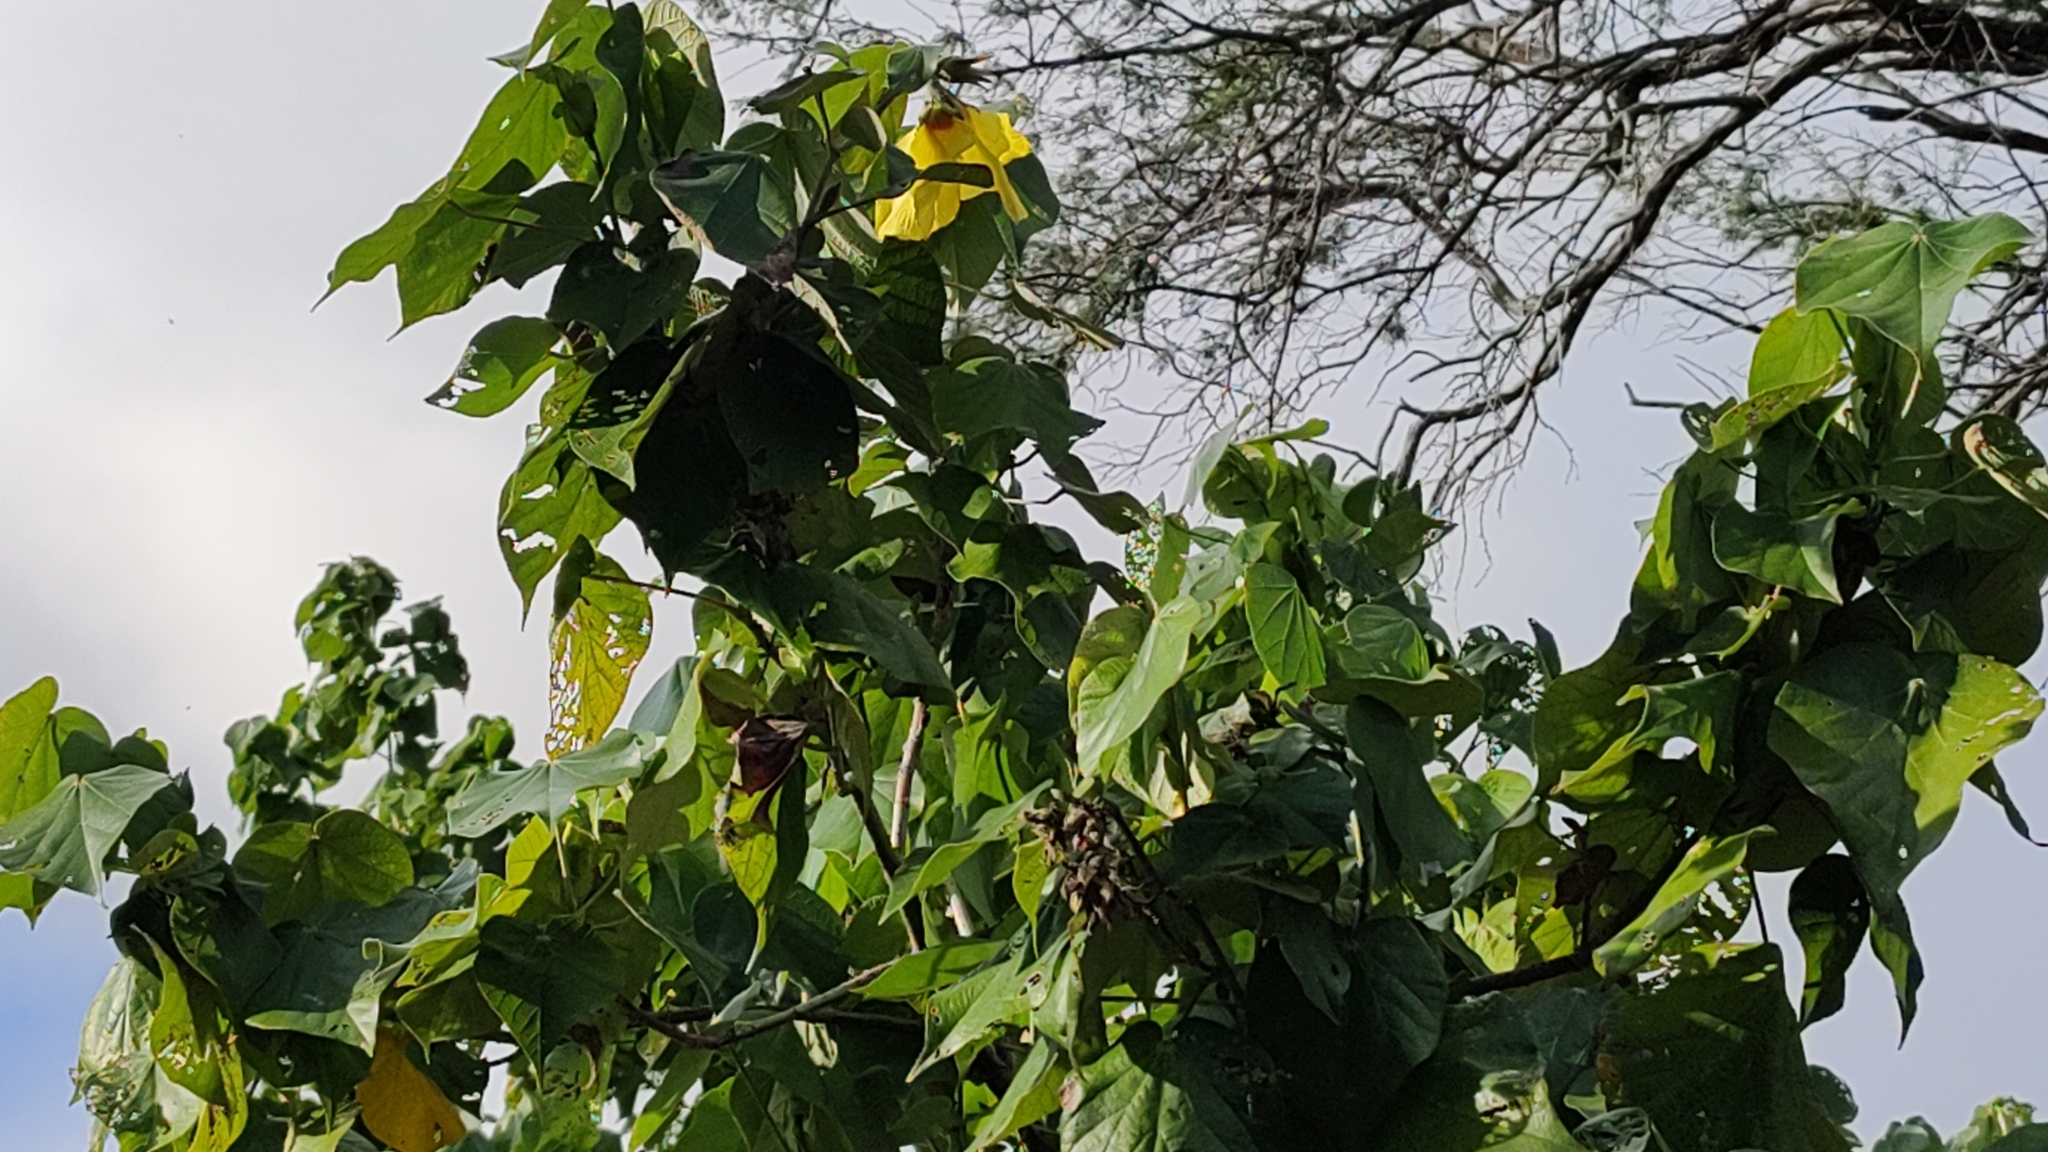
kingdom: Plantae
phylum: Tracheophyta
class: Magnoliopsida
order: Malvales
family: Malvaceae
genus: Talipariti
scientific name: Talipariti tiliaceum
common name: Sea hibiscus
